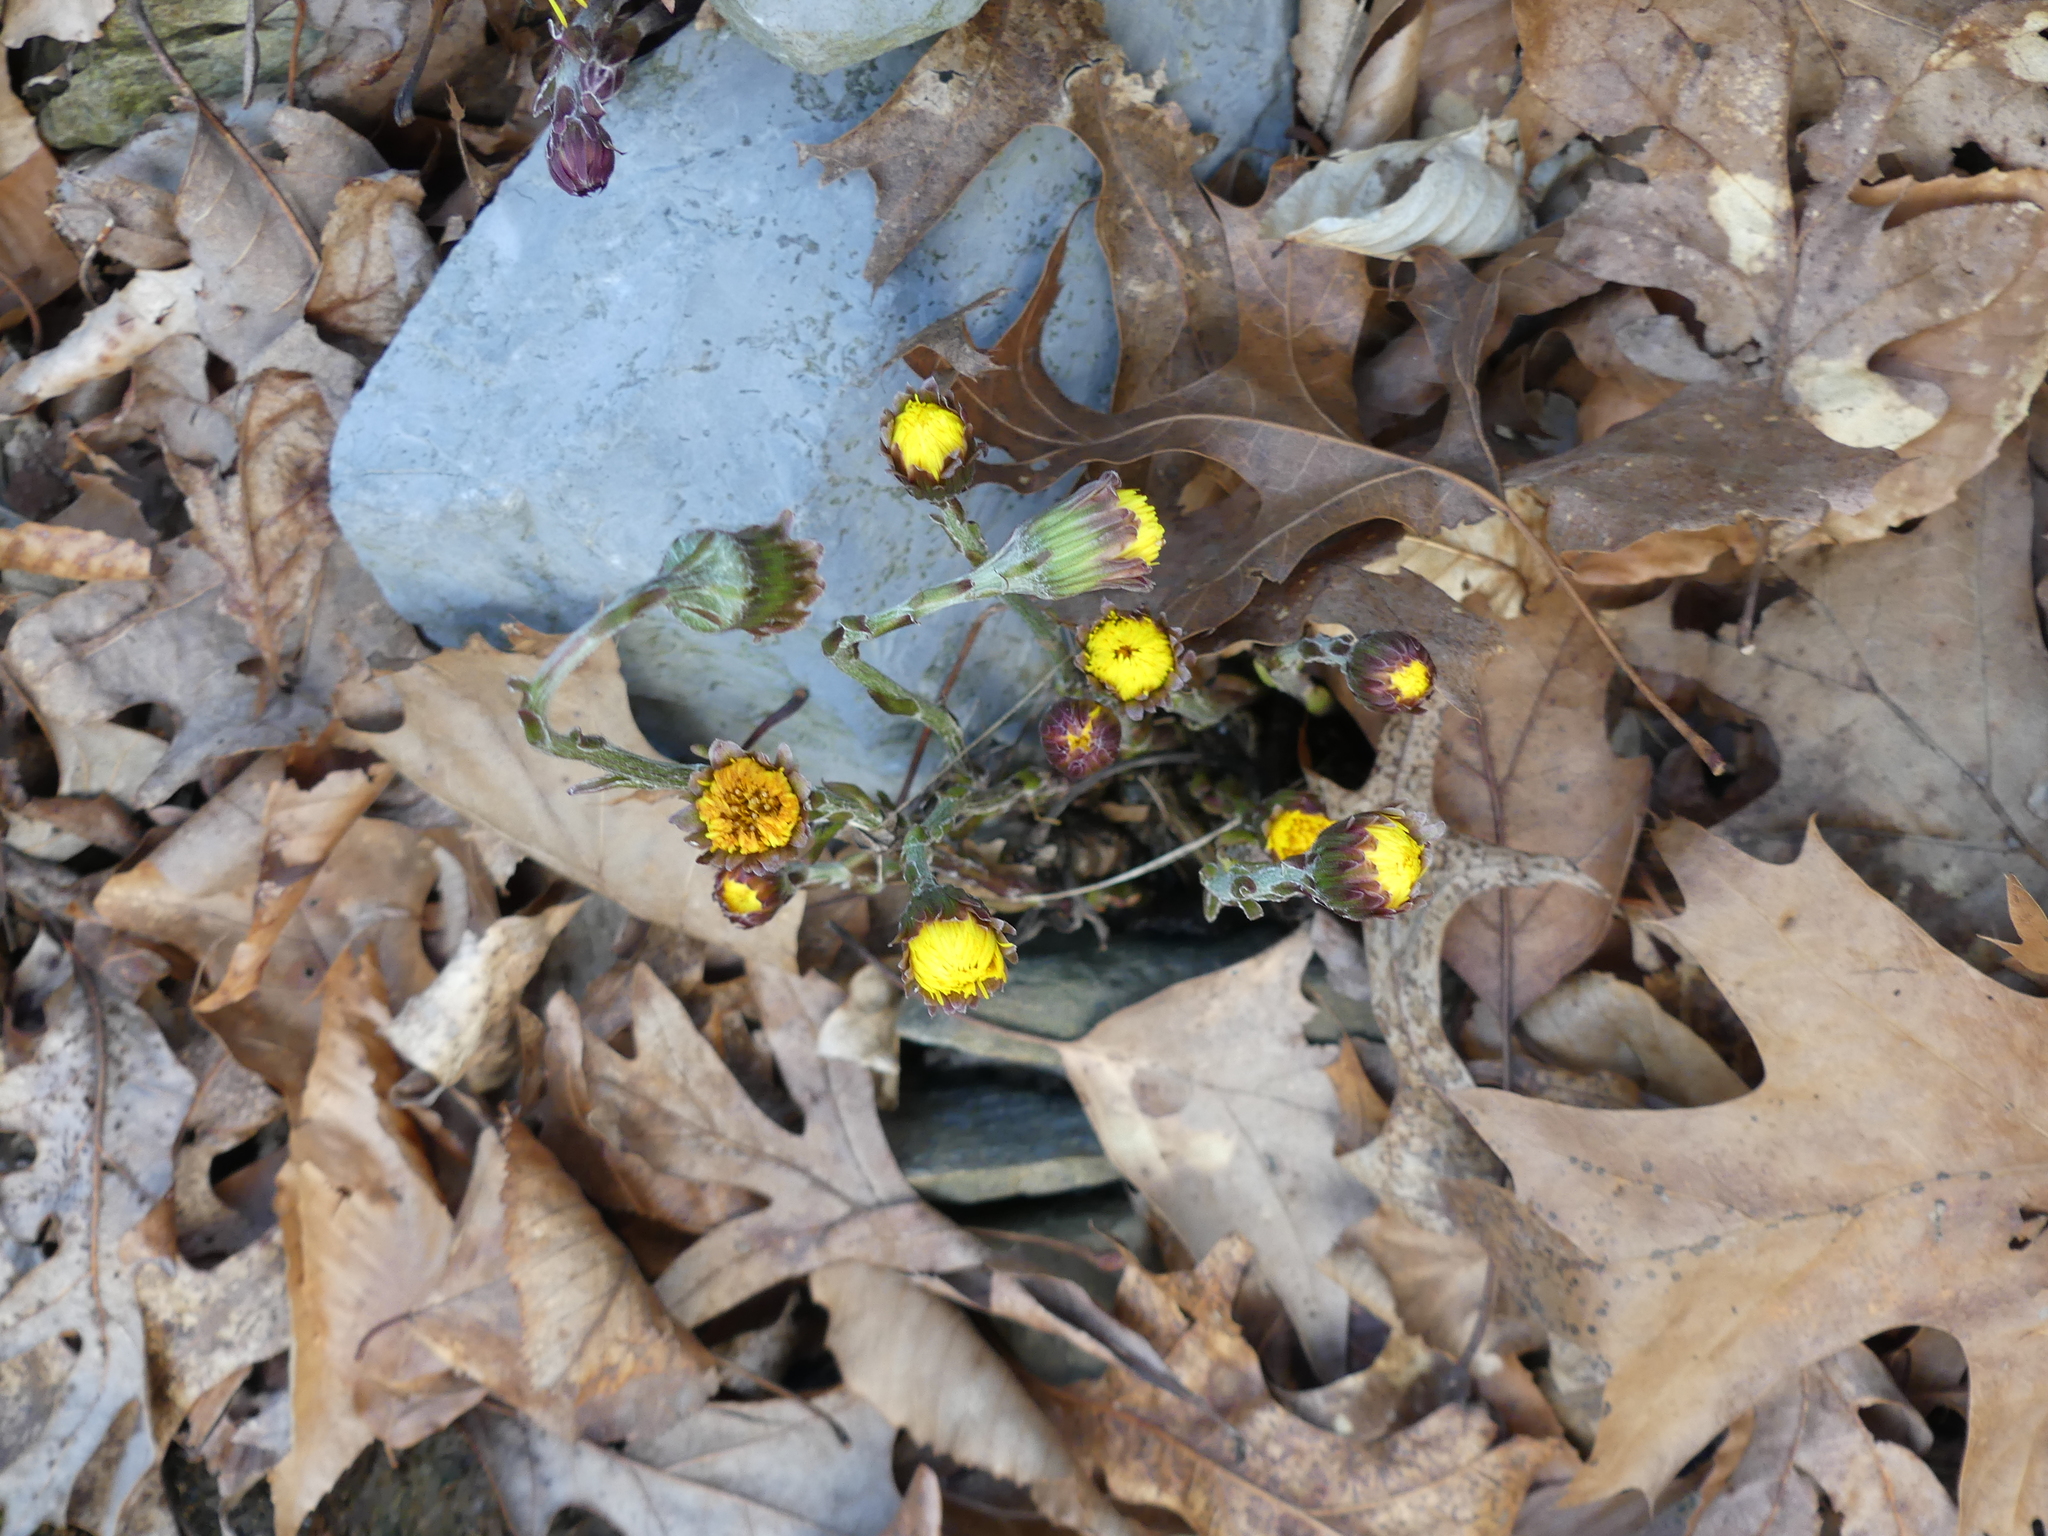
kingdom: Plantae
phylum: Tracheophyta
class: Magnoliopsida
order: Asterales
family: Asteraceae
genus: Tussilago
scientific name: Tussilago farfara
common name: Coltsfoot
